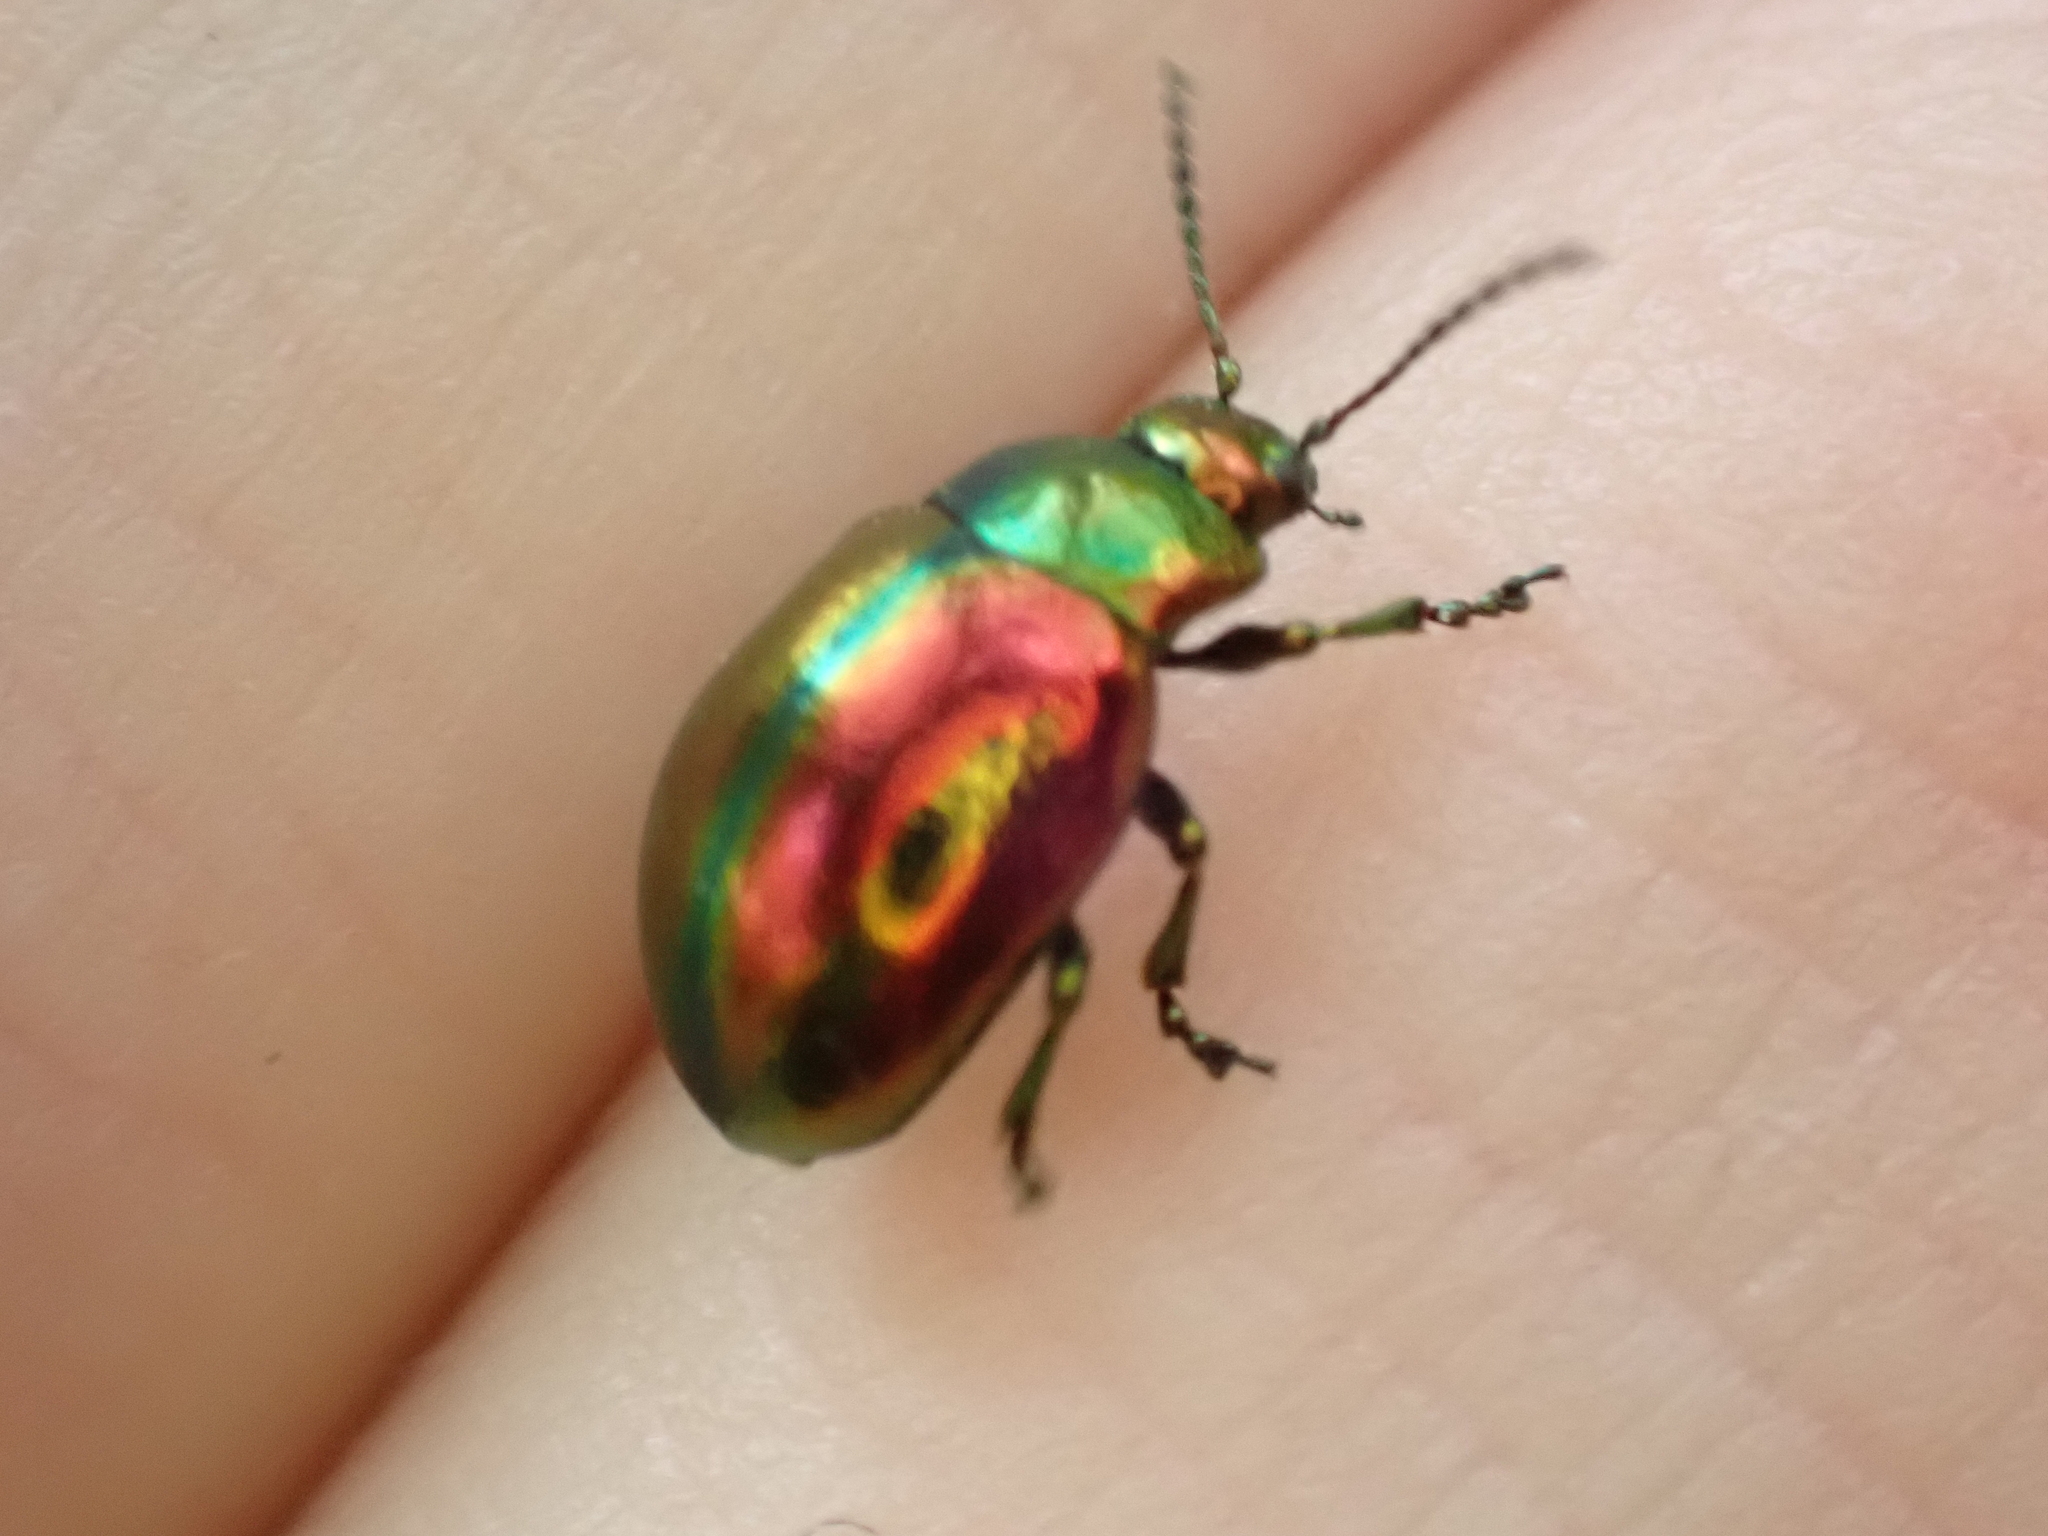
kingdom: Animalia
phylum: Arthropoda
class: Insecta
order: Coleoptera
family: Chrysomelidae
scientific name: Chrysomelidae
